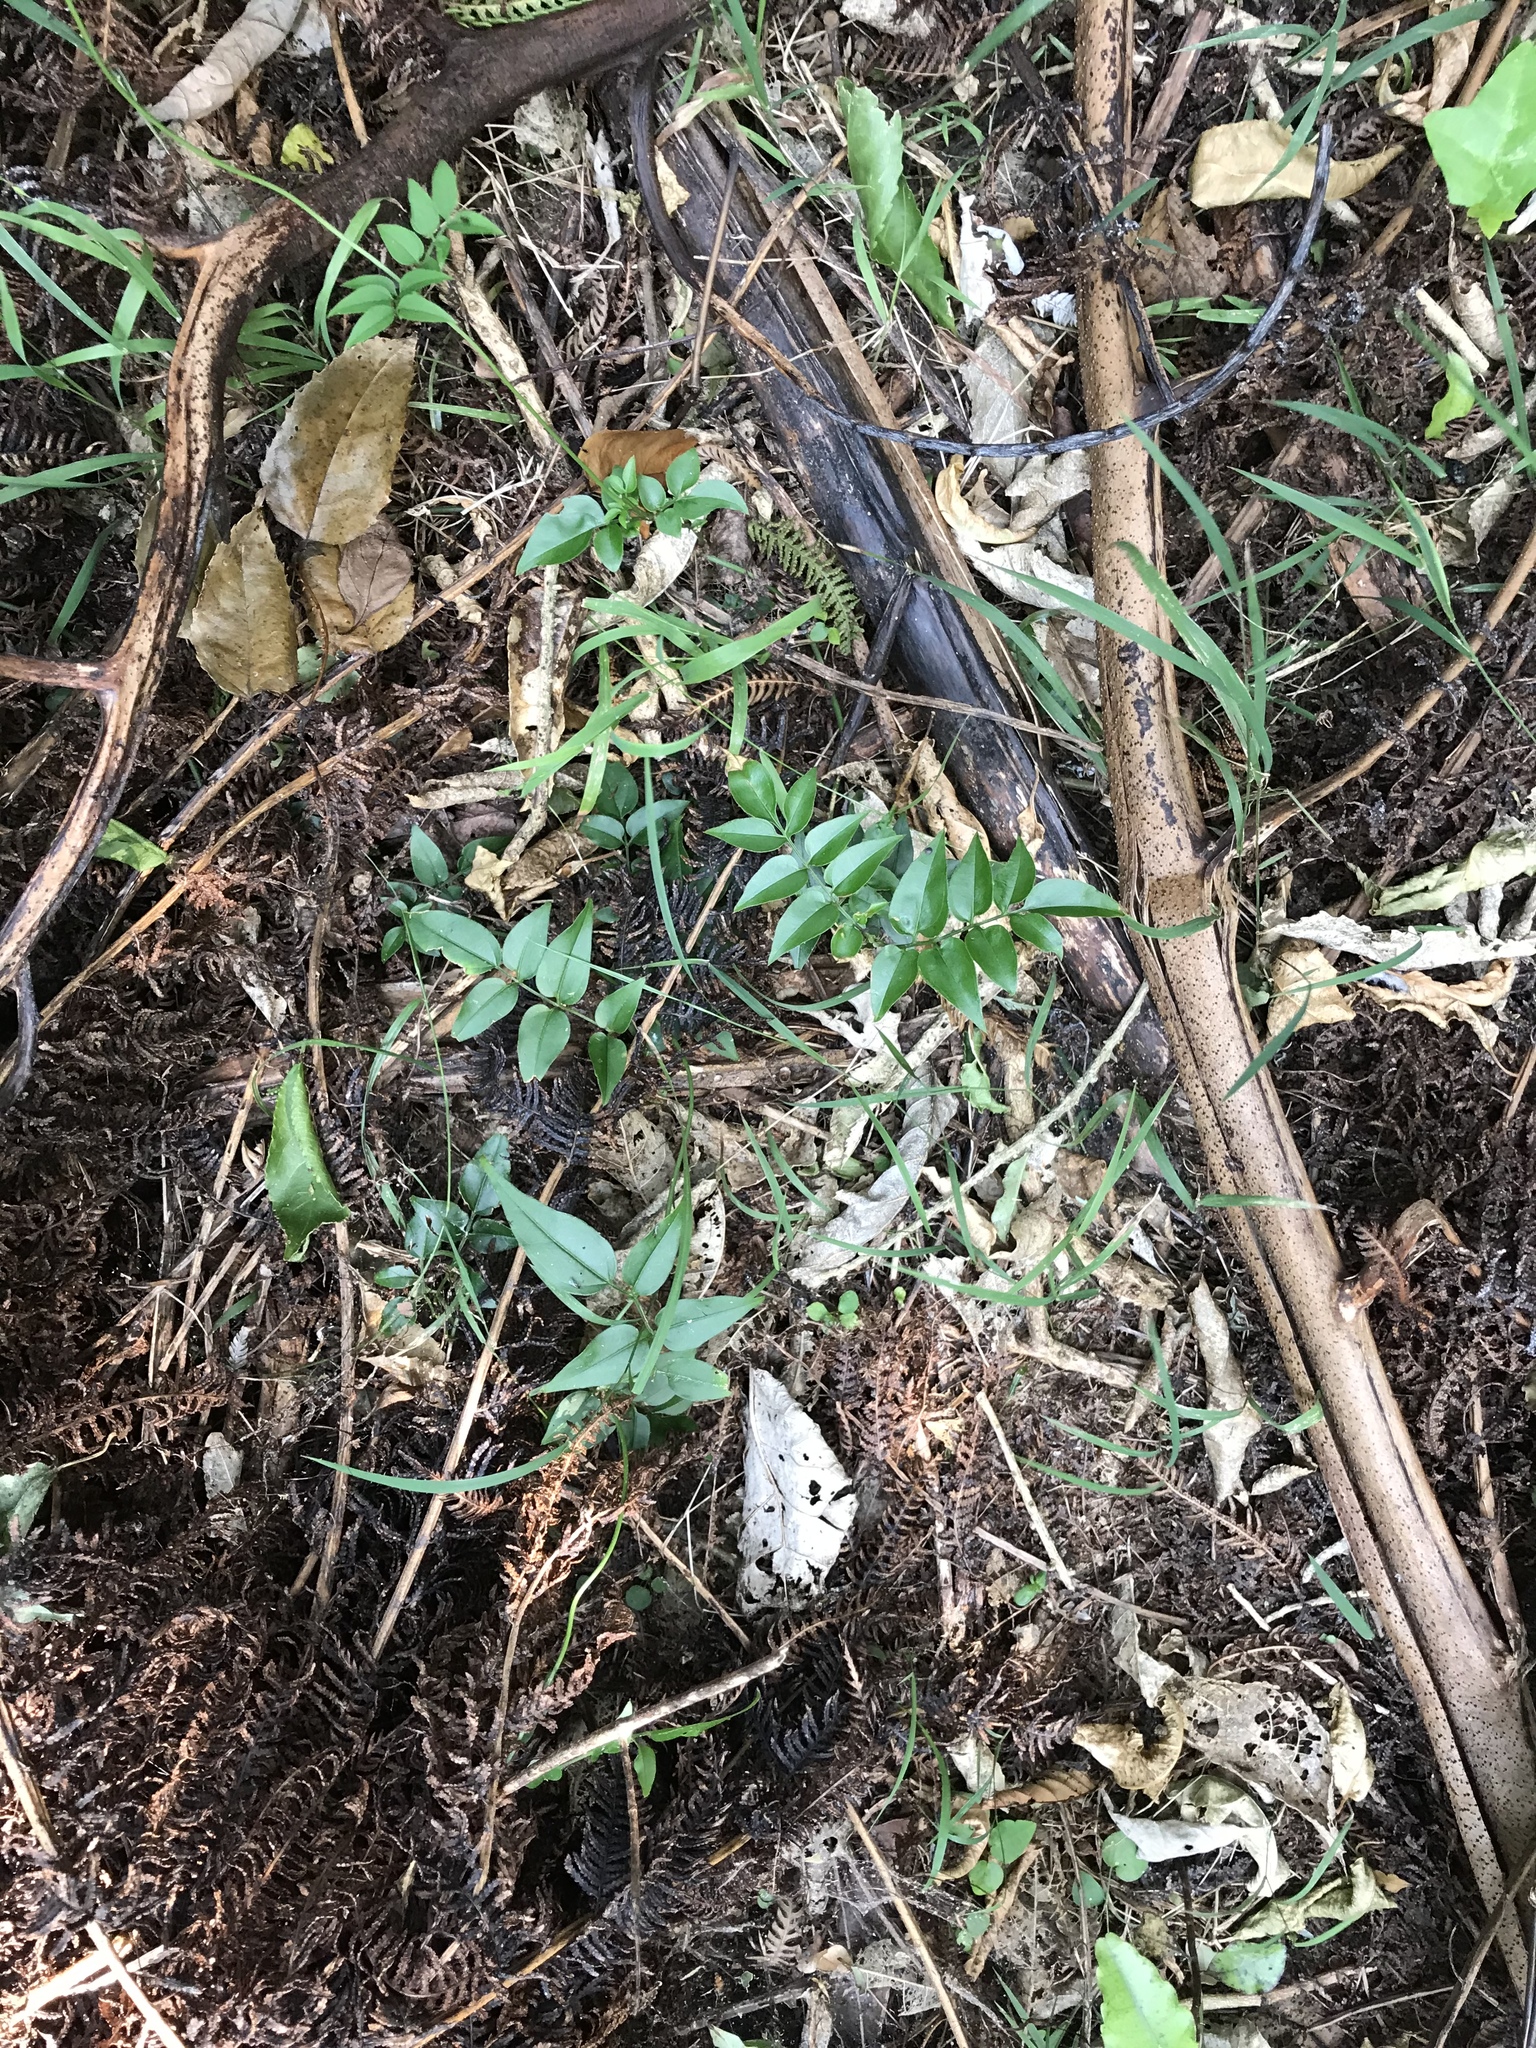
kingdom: Plantae
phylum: Tracheophyta
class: Magnoliopsida
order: Lamiales
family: Oleaceae
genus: Jasminum
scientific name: Jasminum polyanthum
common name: Pink jasmine
